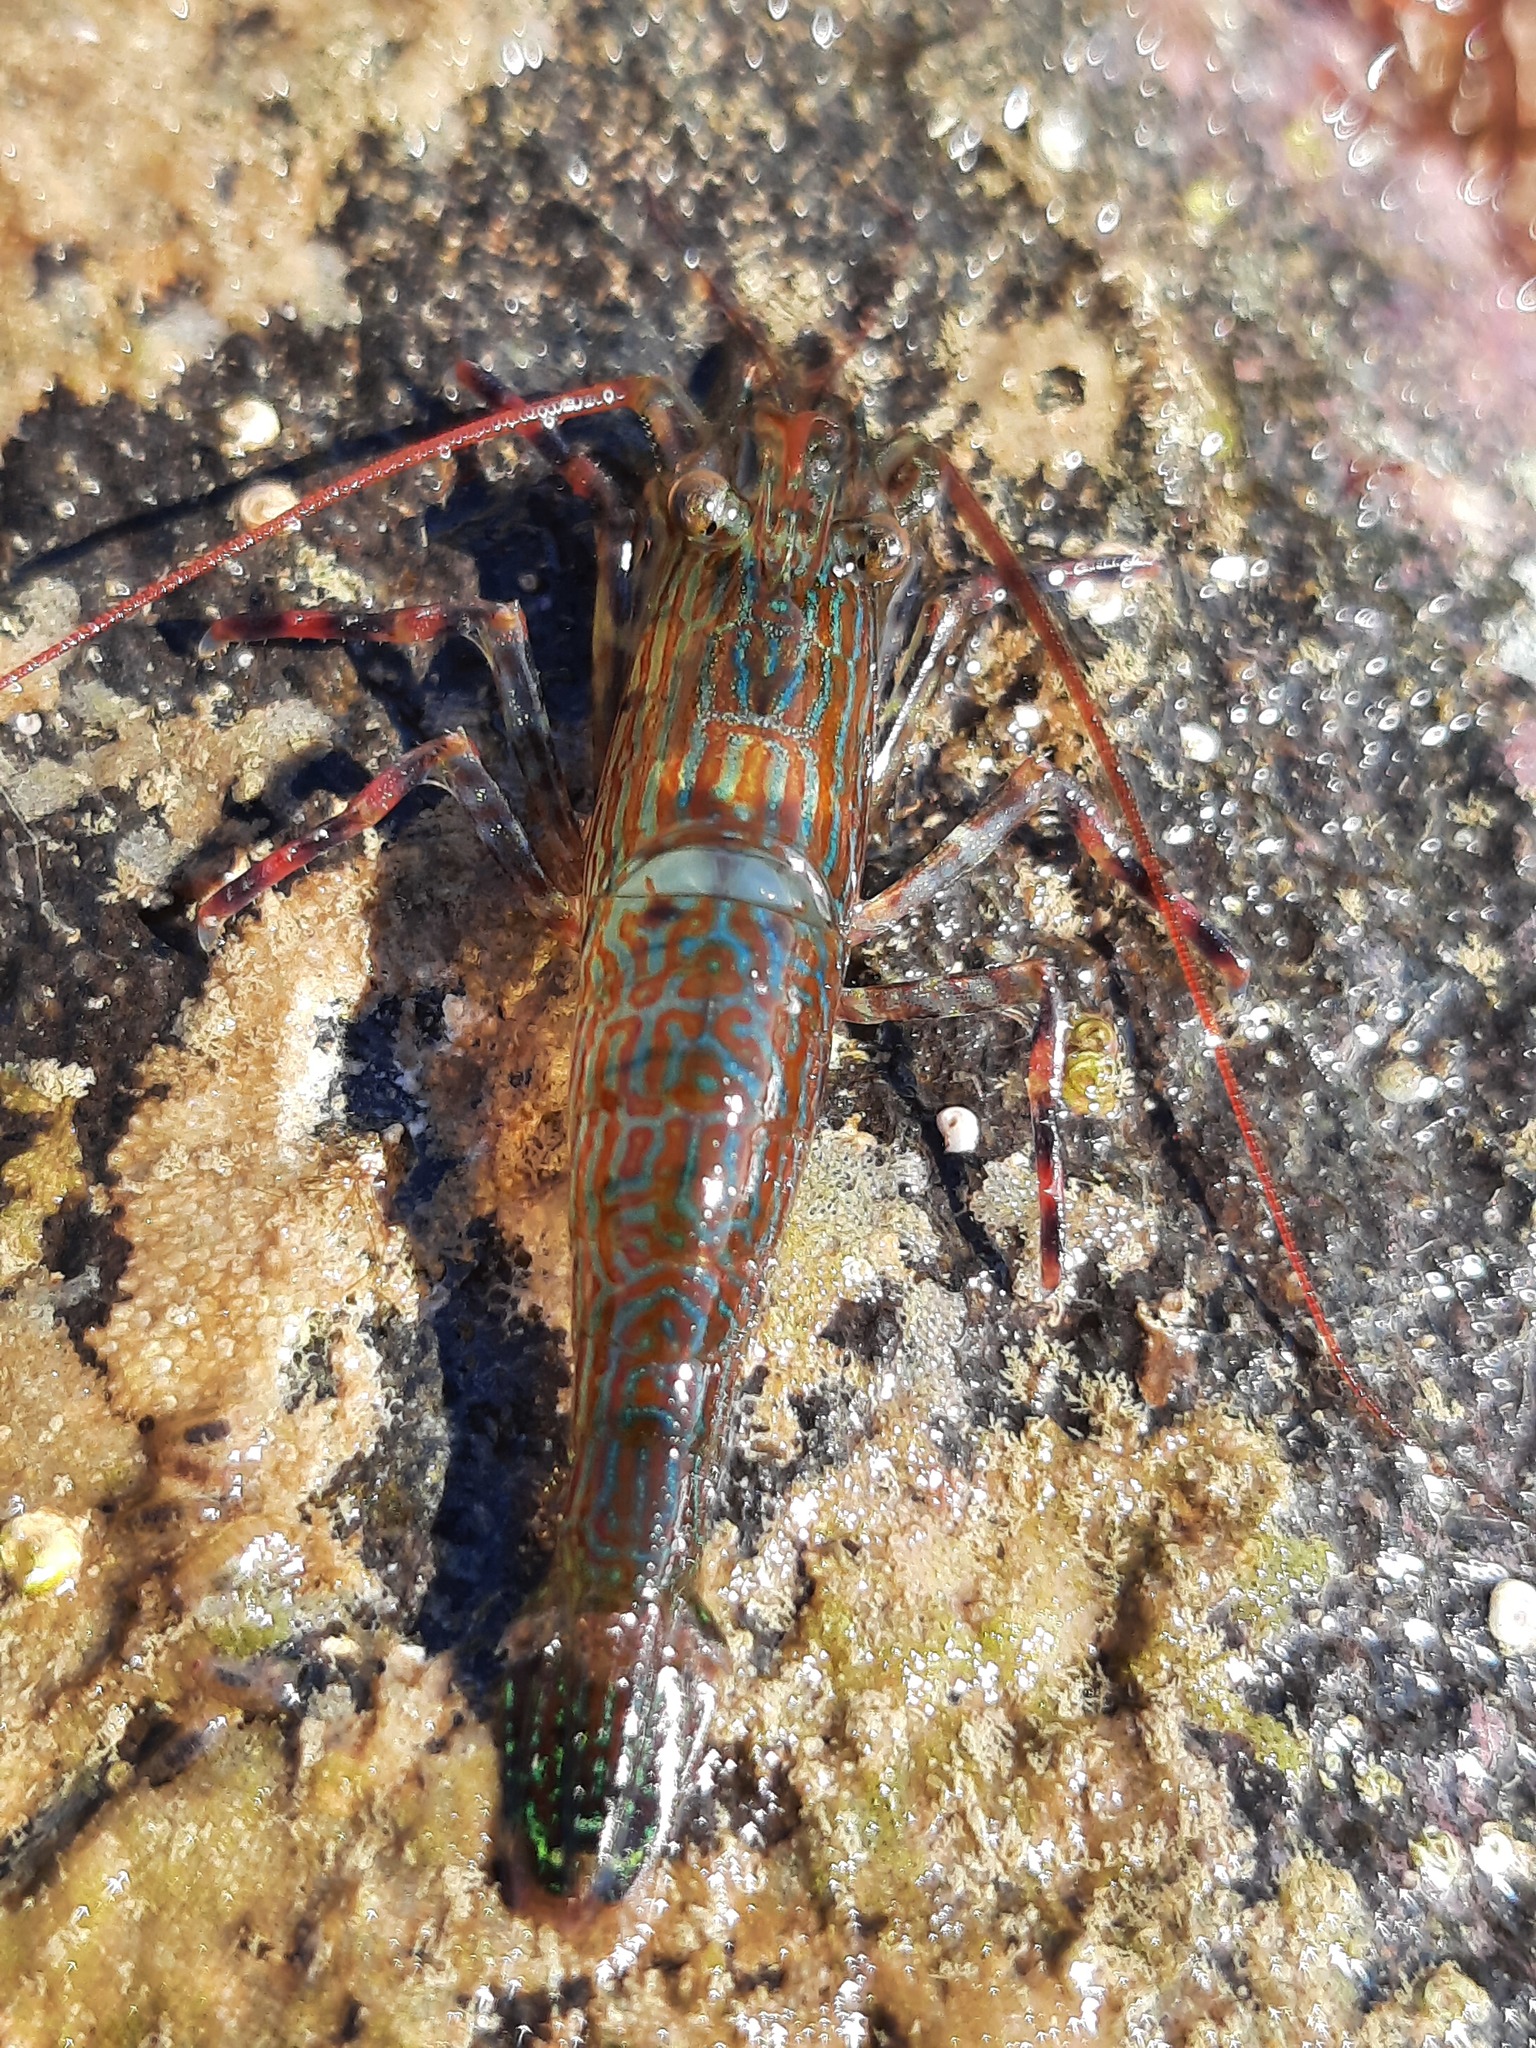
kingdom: Animalia
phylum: Arthropoda
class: Malacostraca
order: Decapoda
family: Hippolytidae
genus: Alope
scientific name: Alope spinifrons
